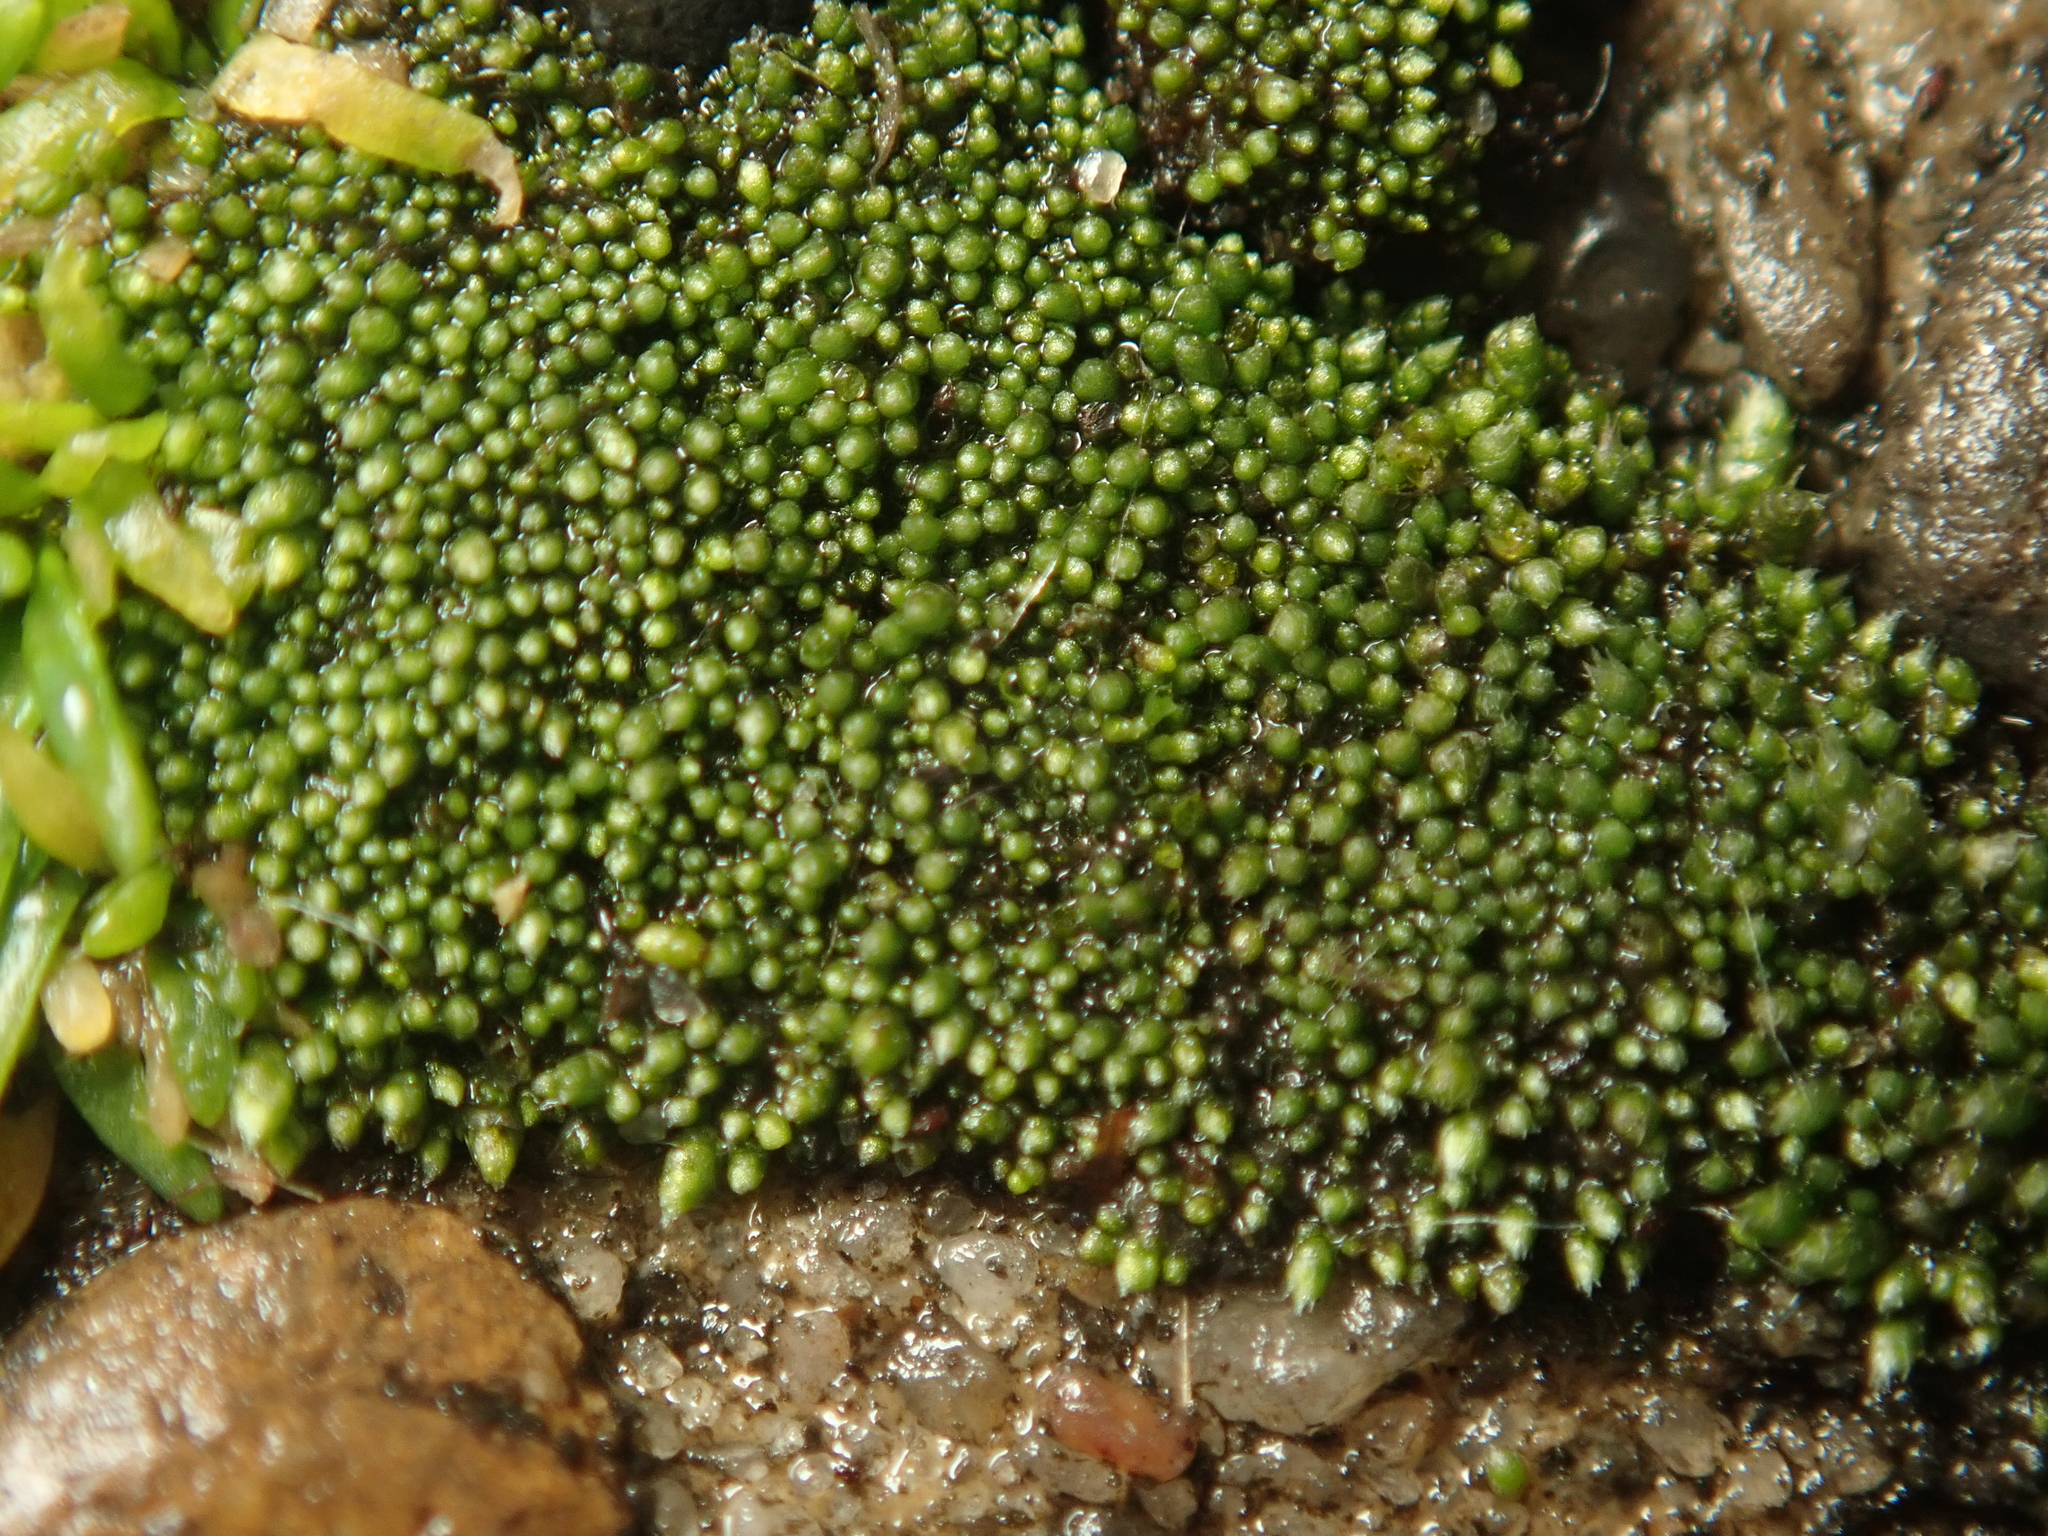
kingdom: Plantae
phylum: Bryophyta
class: Bryopsida
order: Bryales
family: Bryaceae
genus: Bryum
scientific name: Bryum argenteum
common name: Silver-moss
